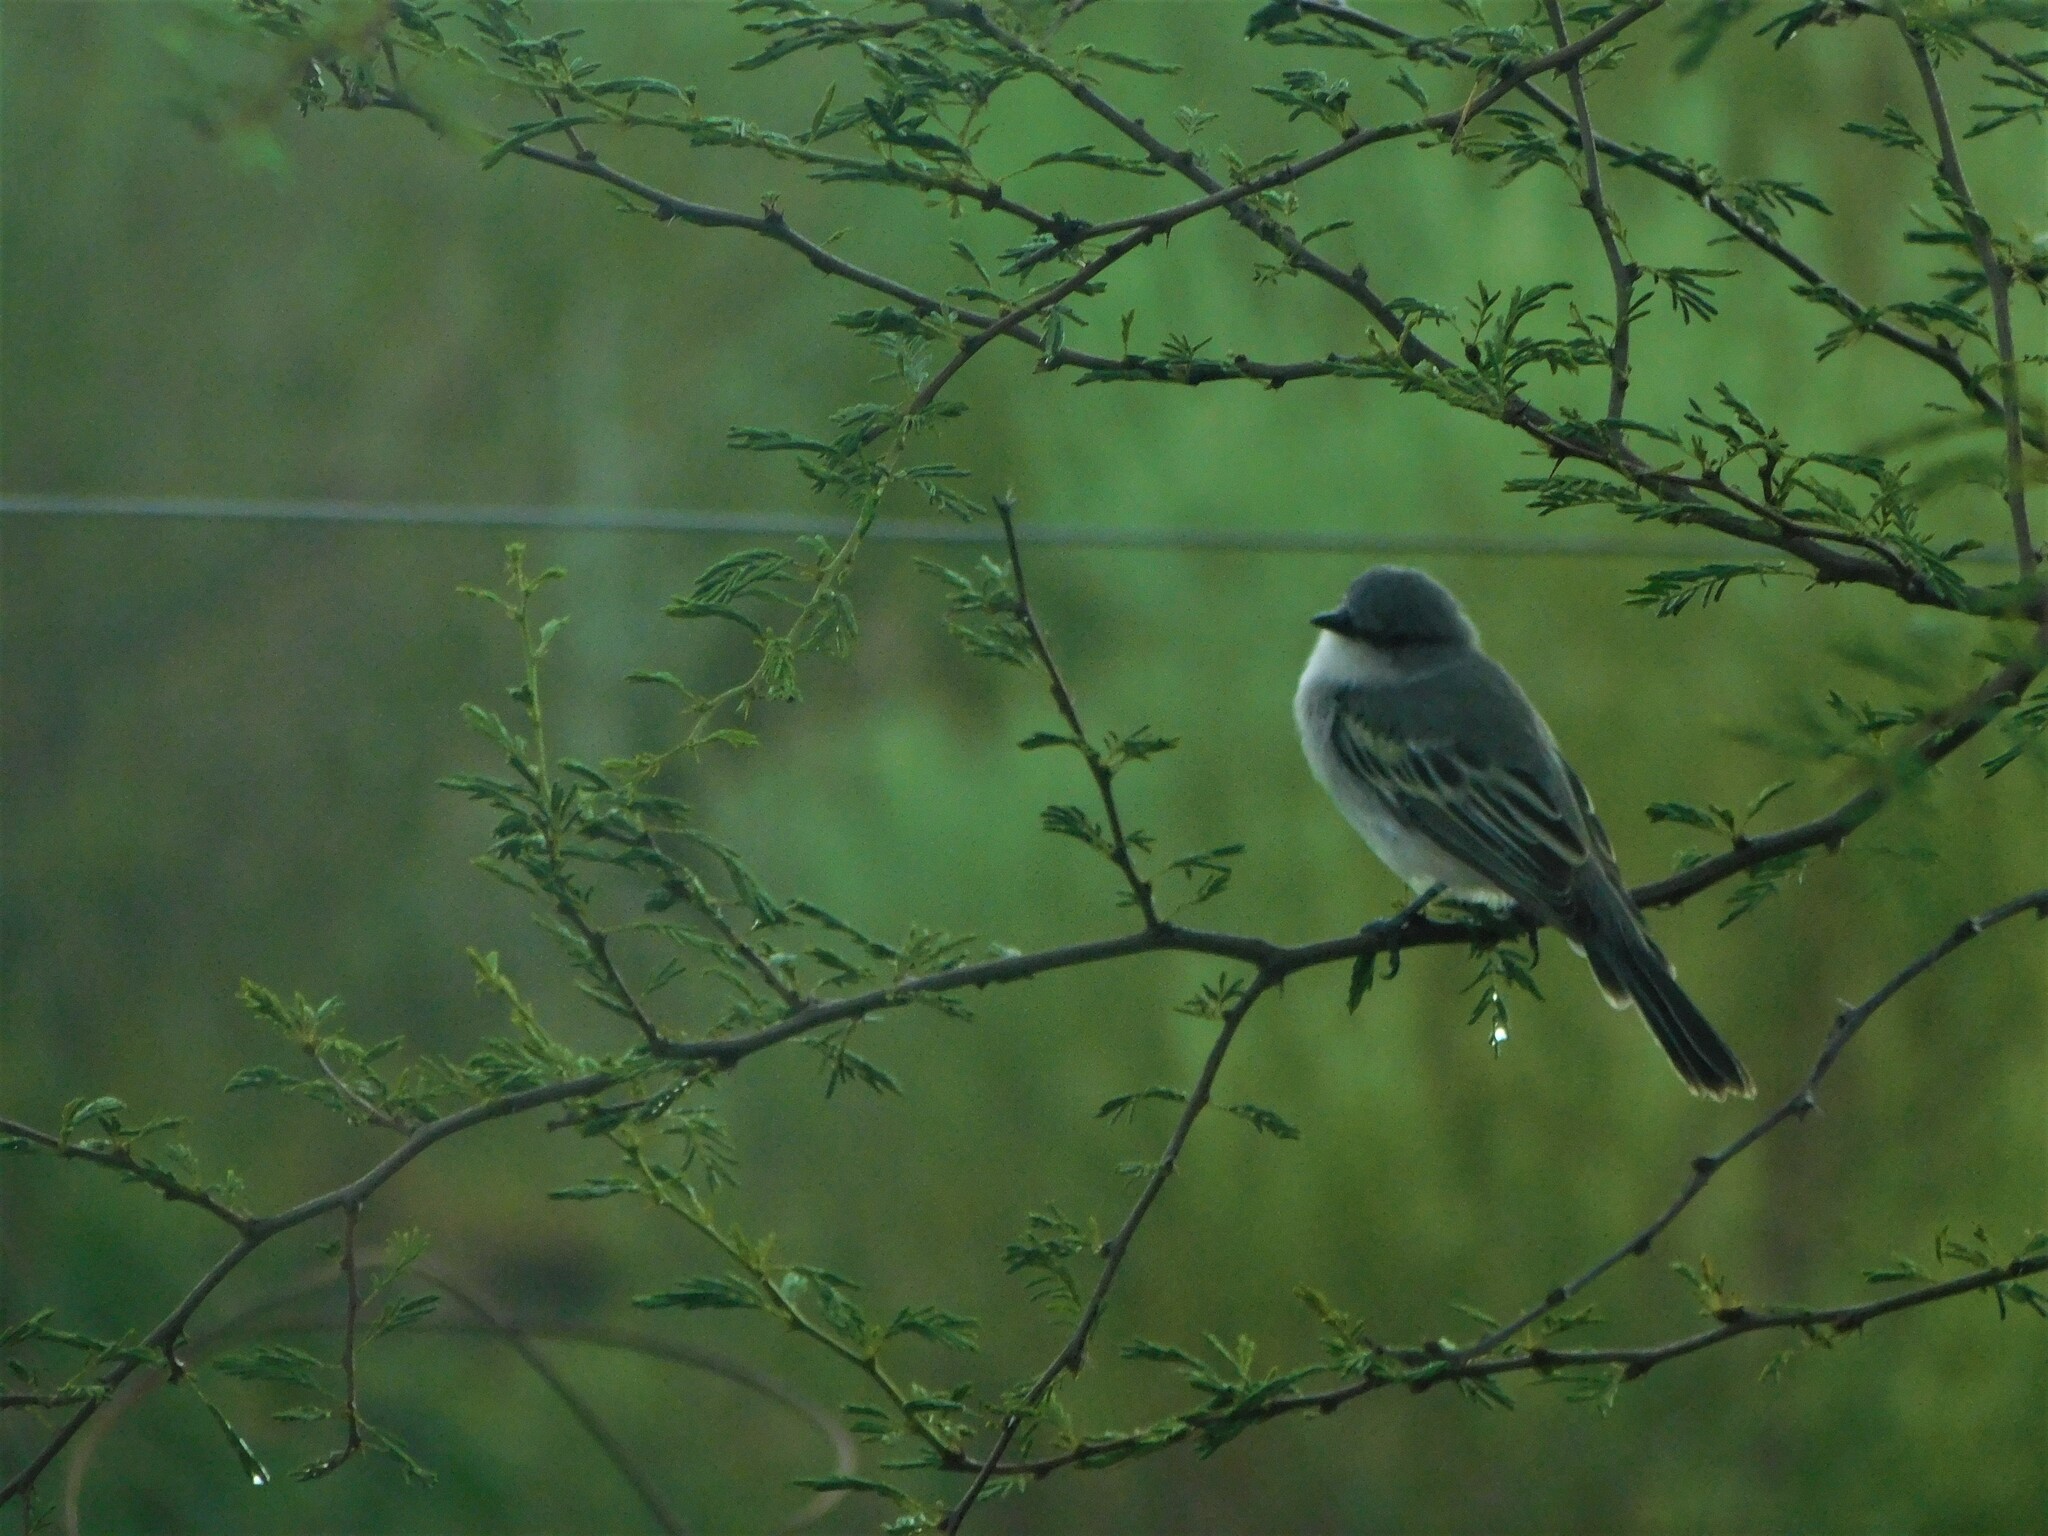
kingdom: Animalia
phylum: Chordata
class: Aves
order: Passeriformes
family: Tyrannidae
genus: Suiriri
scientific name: Suiriri suiriri
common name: Suiriri flycatcher
